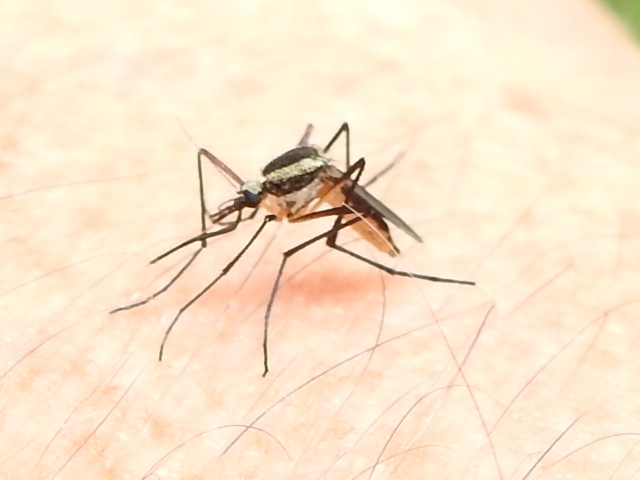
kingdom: Animalia
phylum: Arthropoda
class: Insecta
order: Diptera
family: Culicidae
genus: Psorophora
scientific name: Psorophora longipalpus
